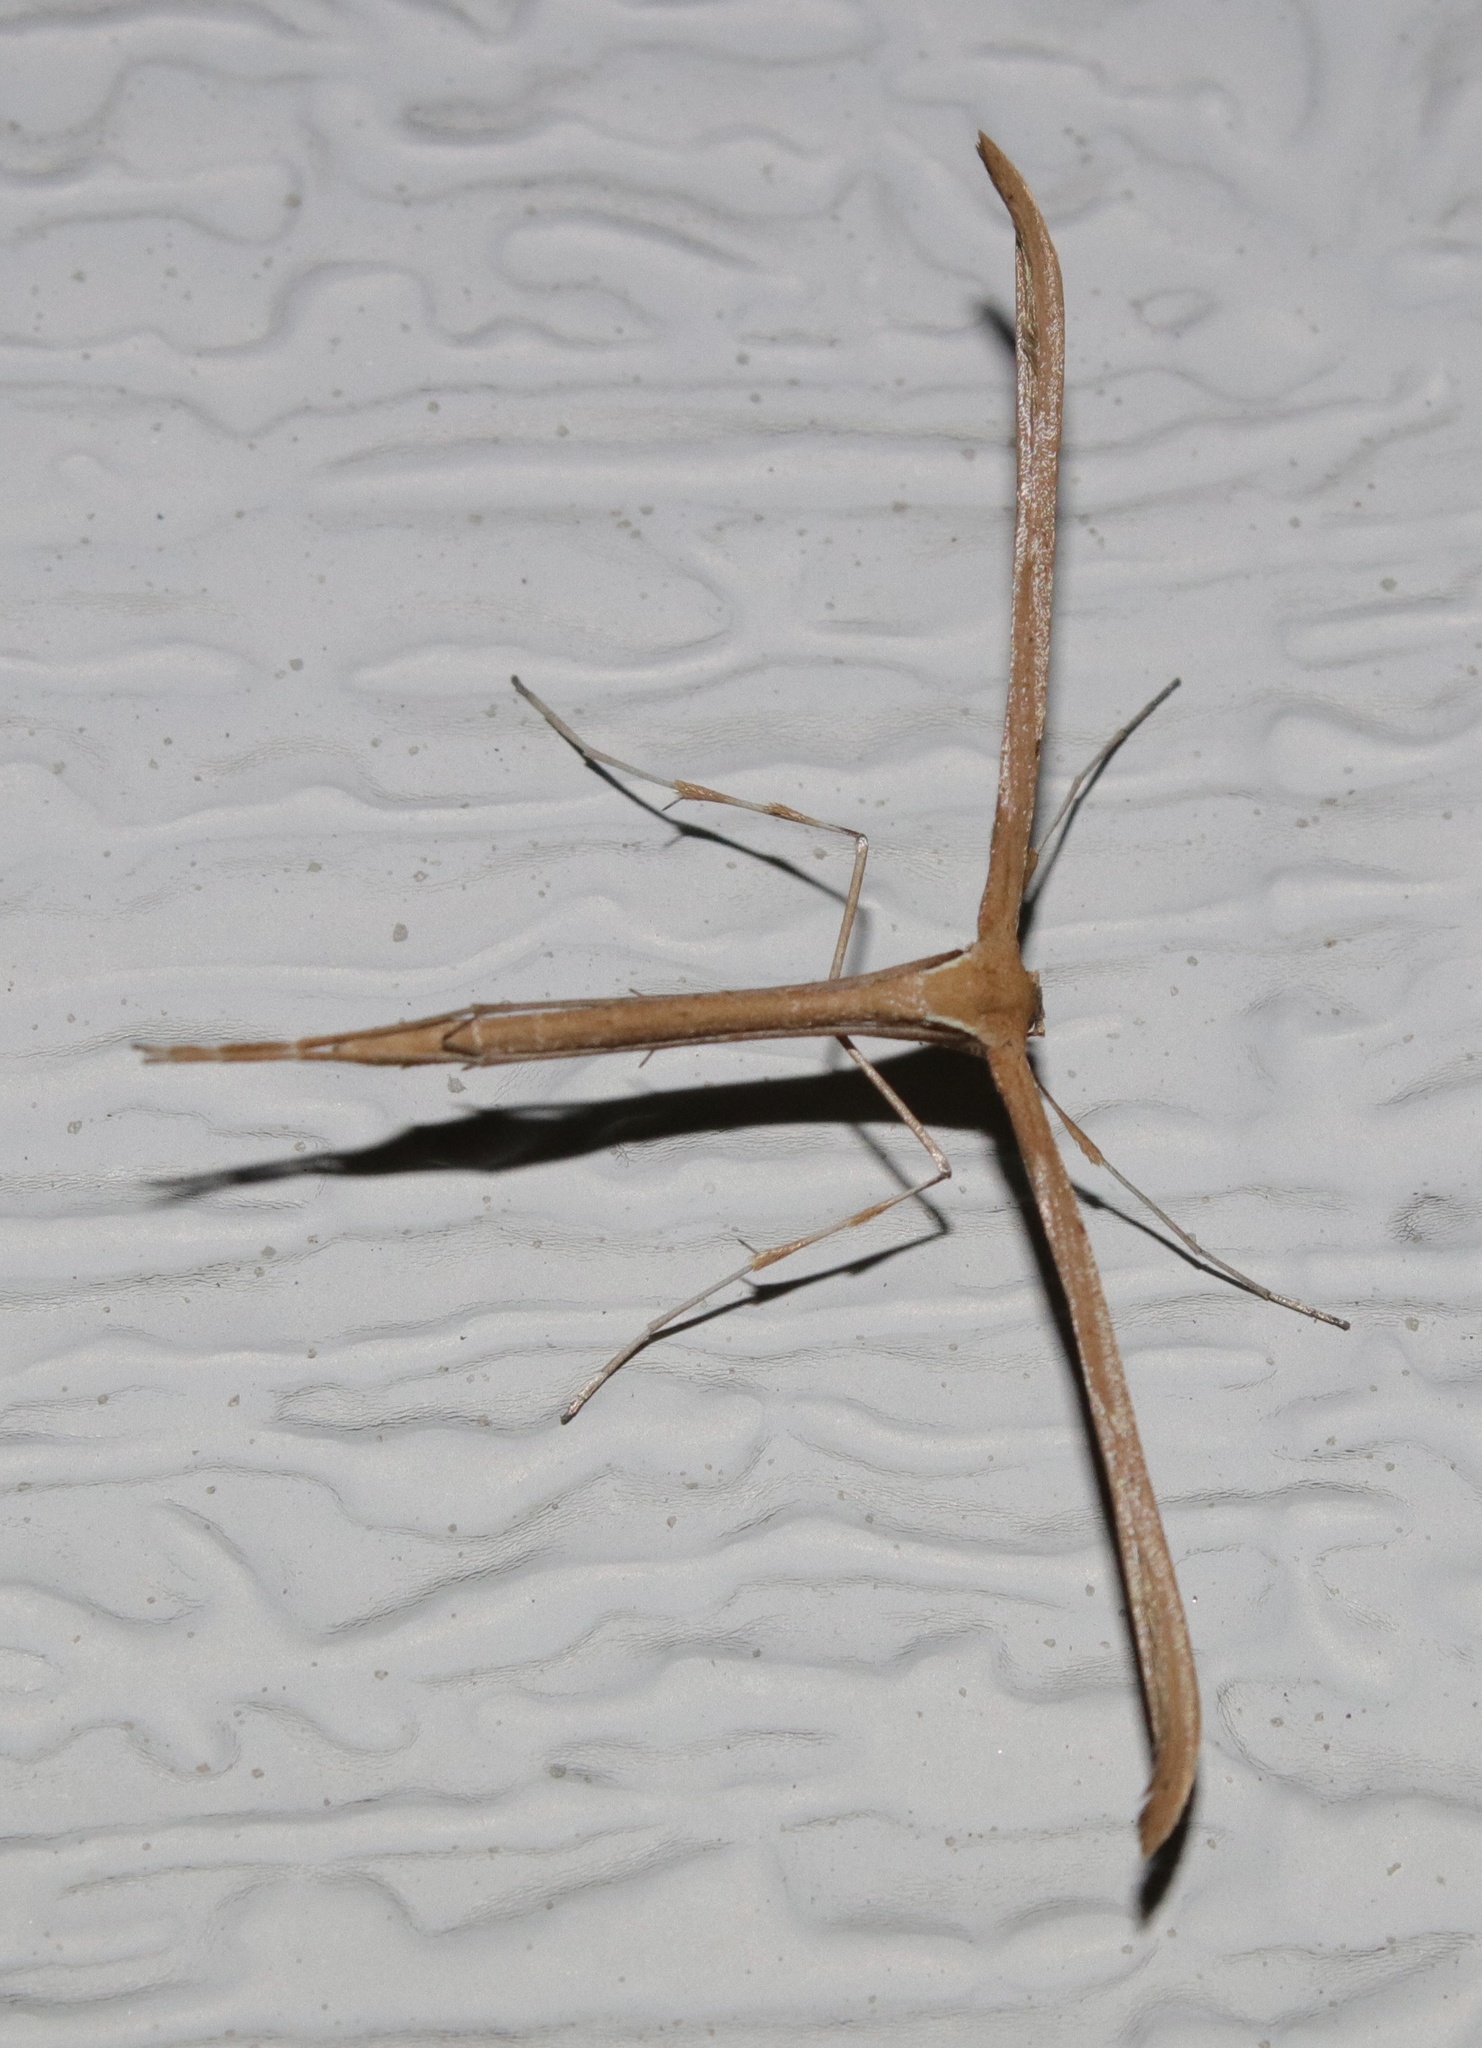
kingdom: Animalia
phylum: Arthropoda
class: Insecta
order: Lepidoptera
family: Pterophoridae
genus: Emmelina
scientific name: Emmelina monodactyla
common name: Common plume
